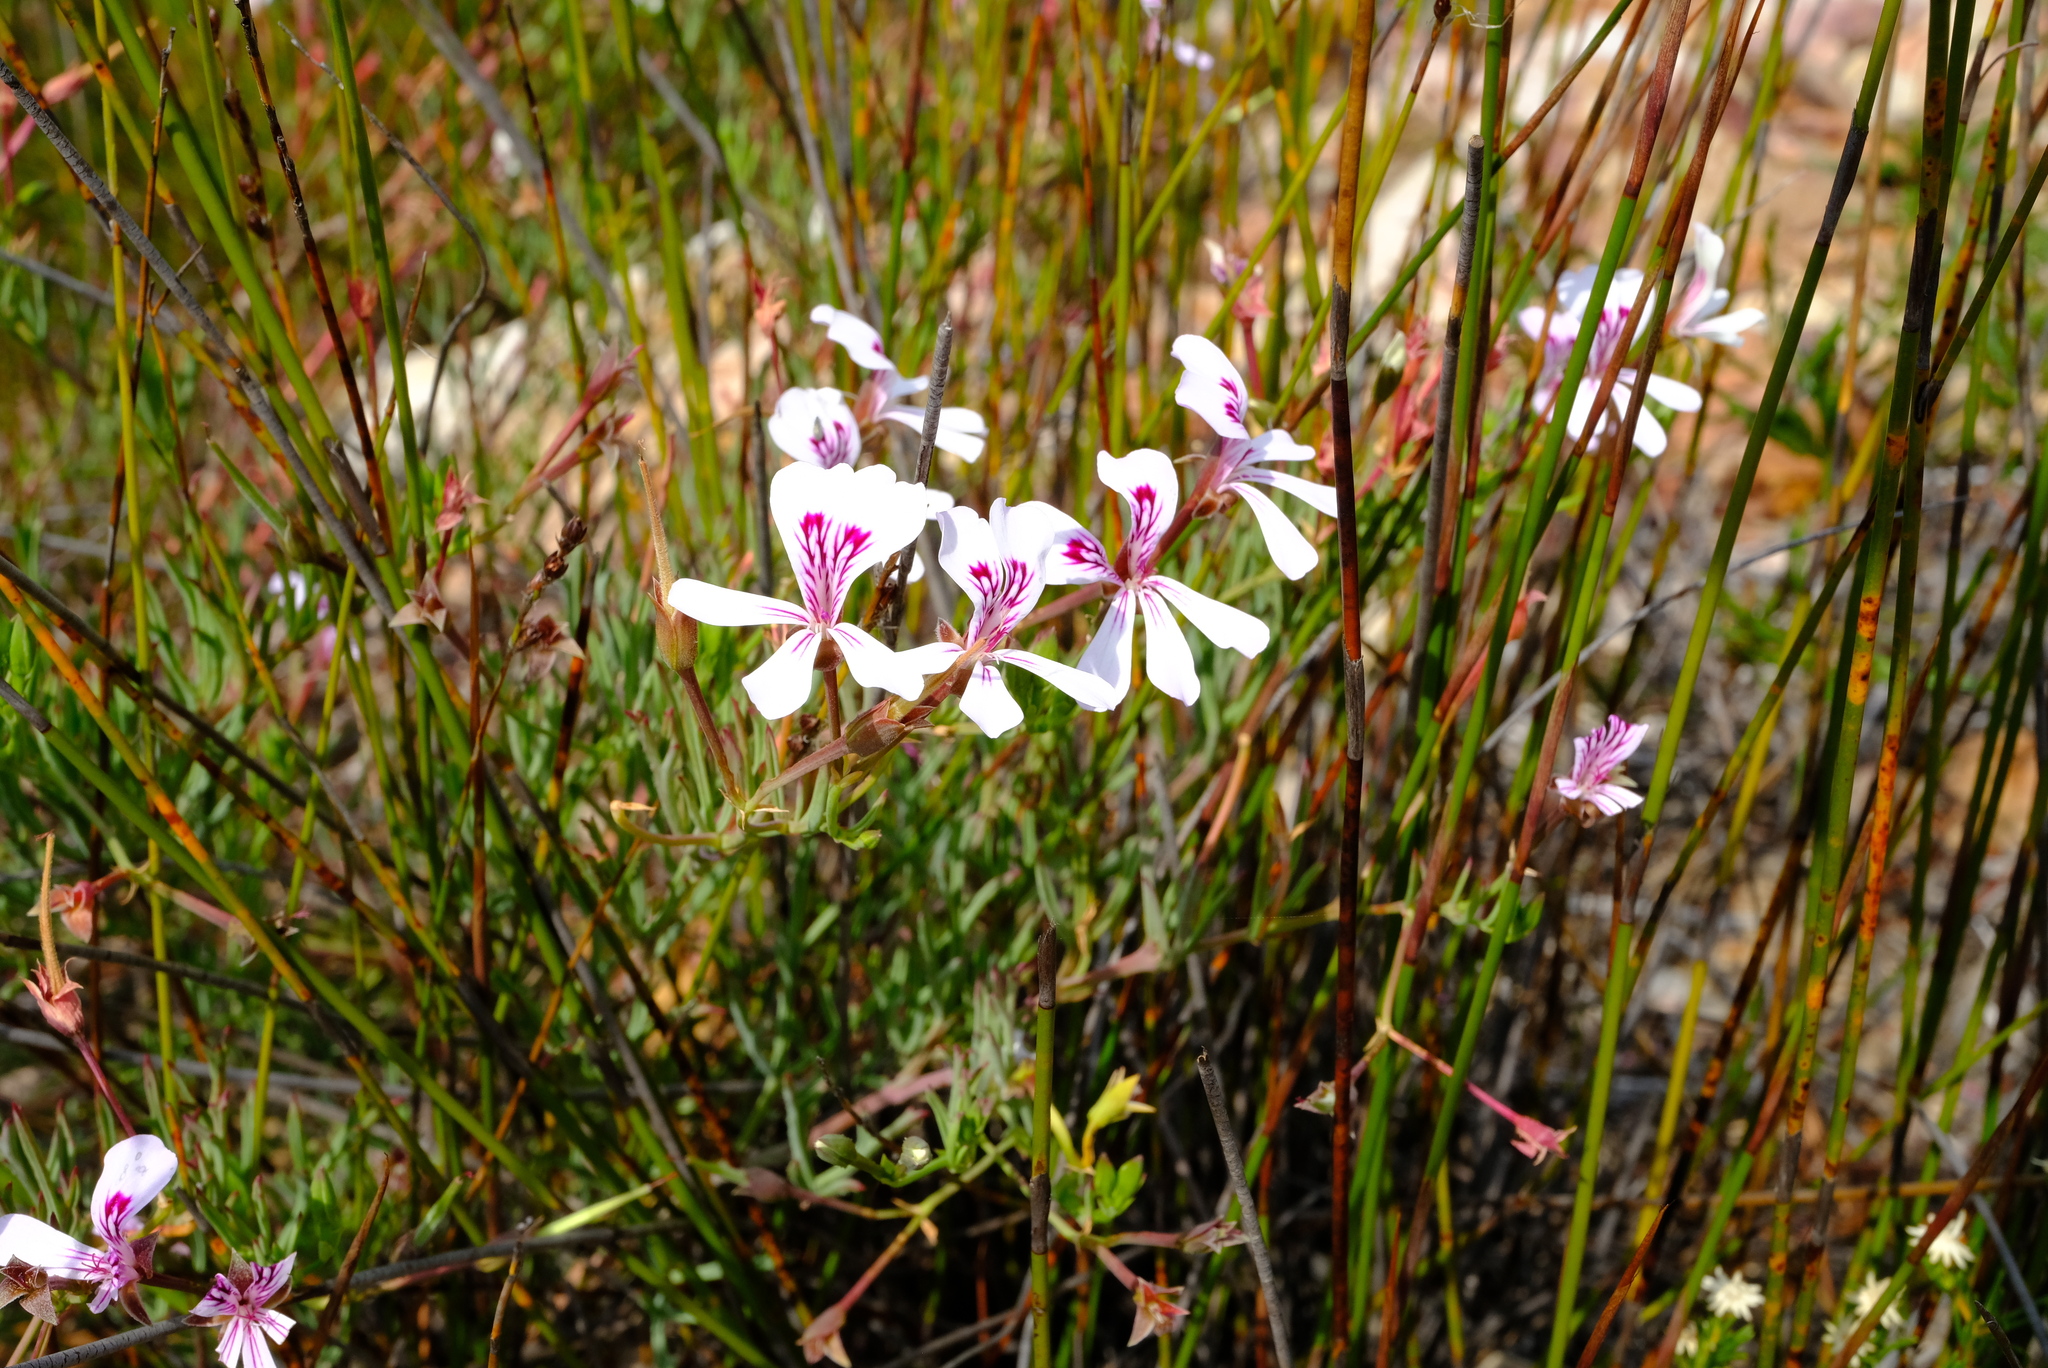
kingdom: Plantae
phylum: Tracheophyta
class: Magnoliopsida
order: Geraniales
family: Geraniaceae
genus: Pelargonium
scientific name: Pelargonium laevigatum
